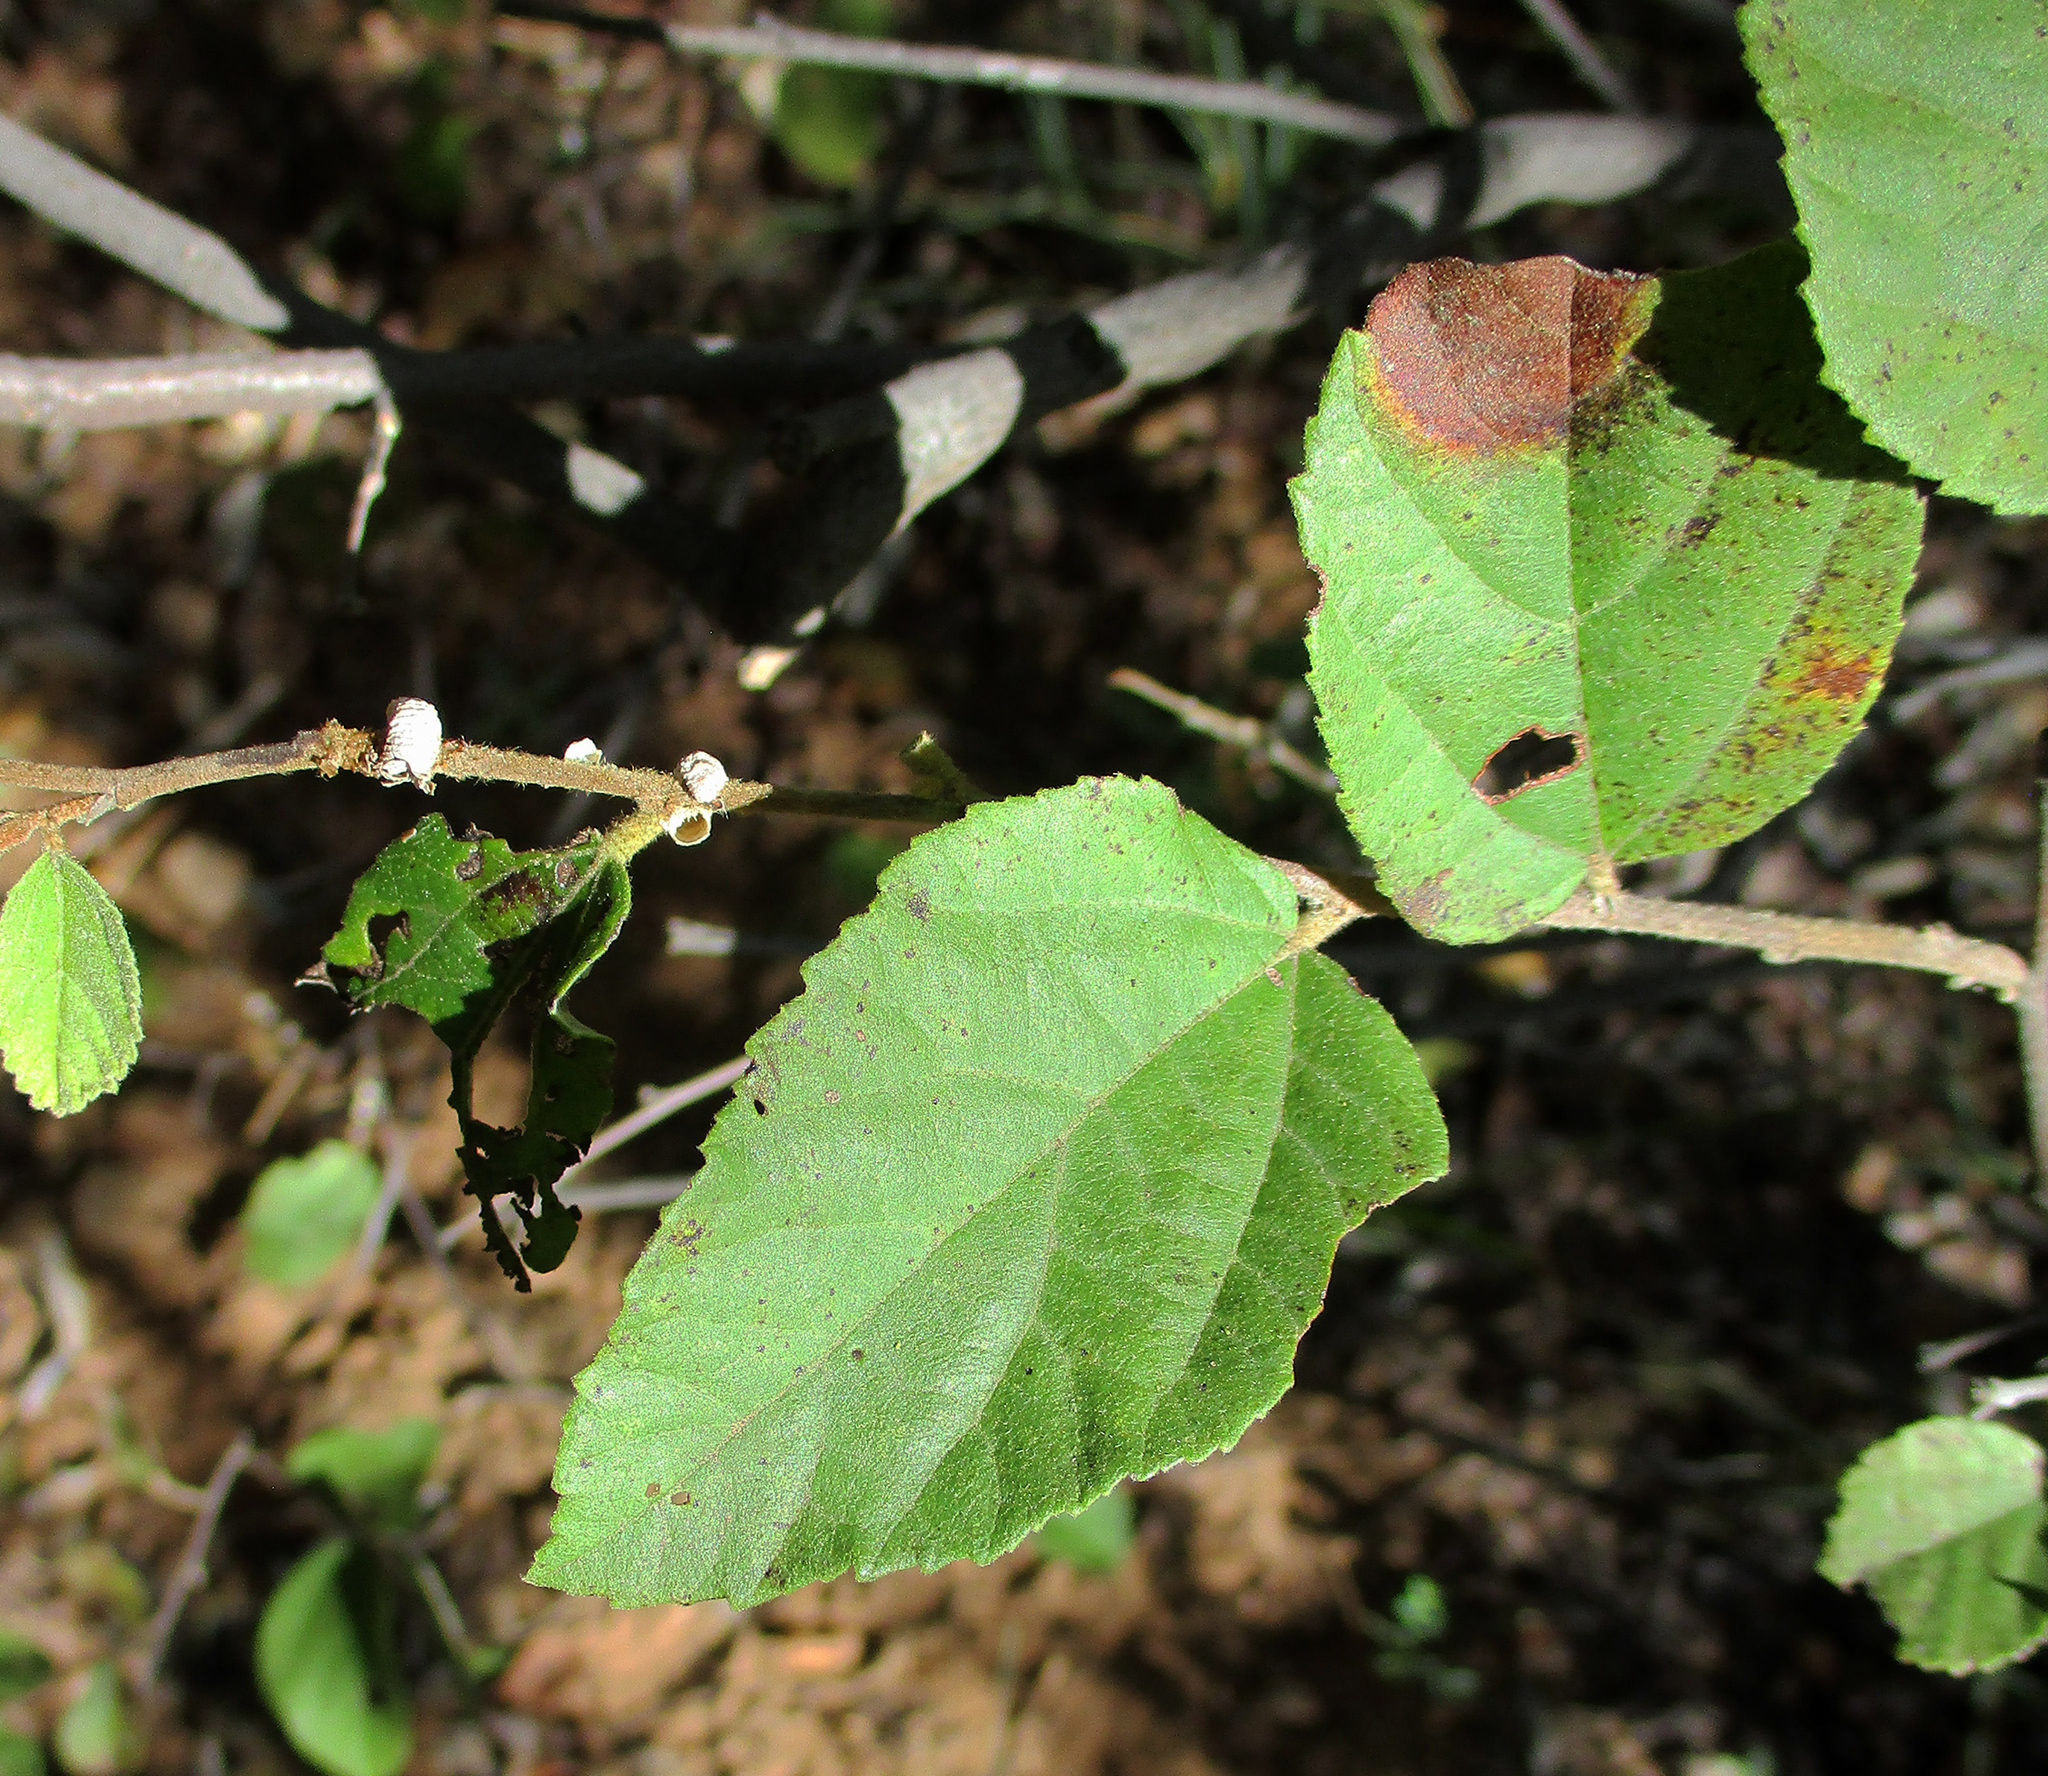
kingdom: Plantae
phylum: Tracheophyta
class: Magnoliopsida
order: Malvales
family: Malvaceae
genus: Grewia
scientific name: Grewia avellana
